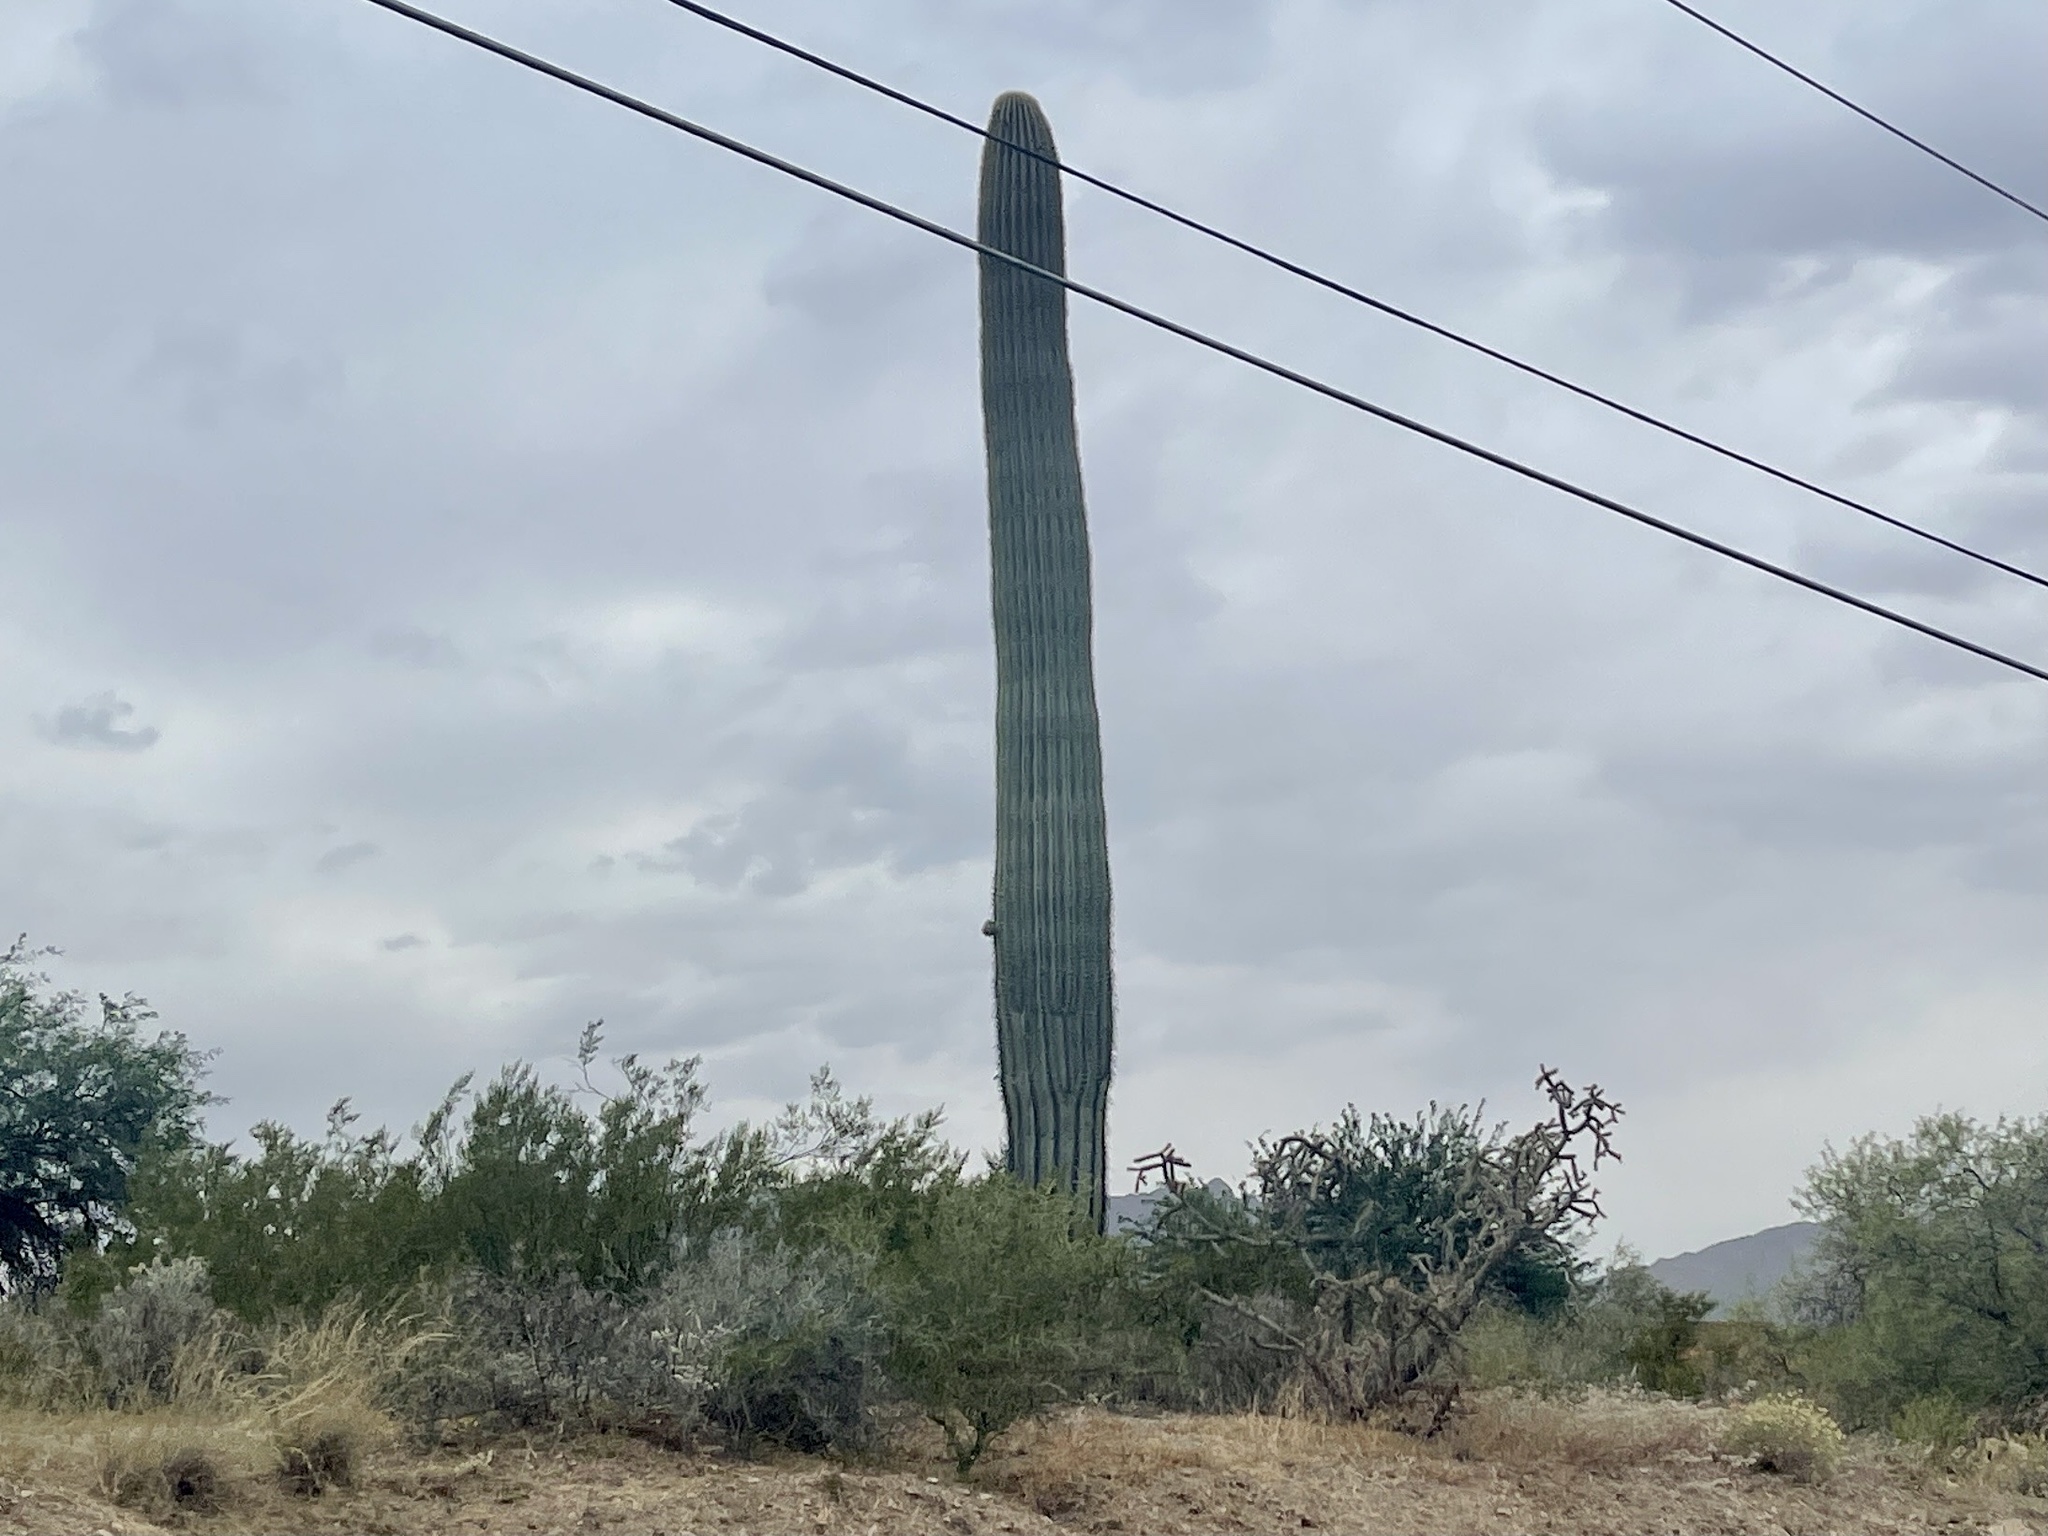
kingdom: Plantae
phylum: Tracheophyta
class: Magnoliopsida
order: Caryophyllales
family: Cactaceae
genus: Carnegiea
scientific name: Carnegiea gigantea
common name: Saguaro
